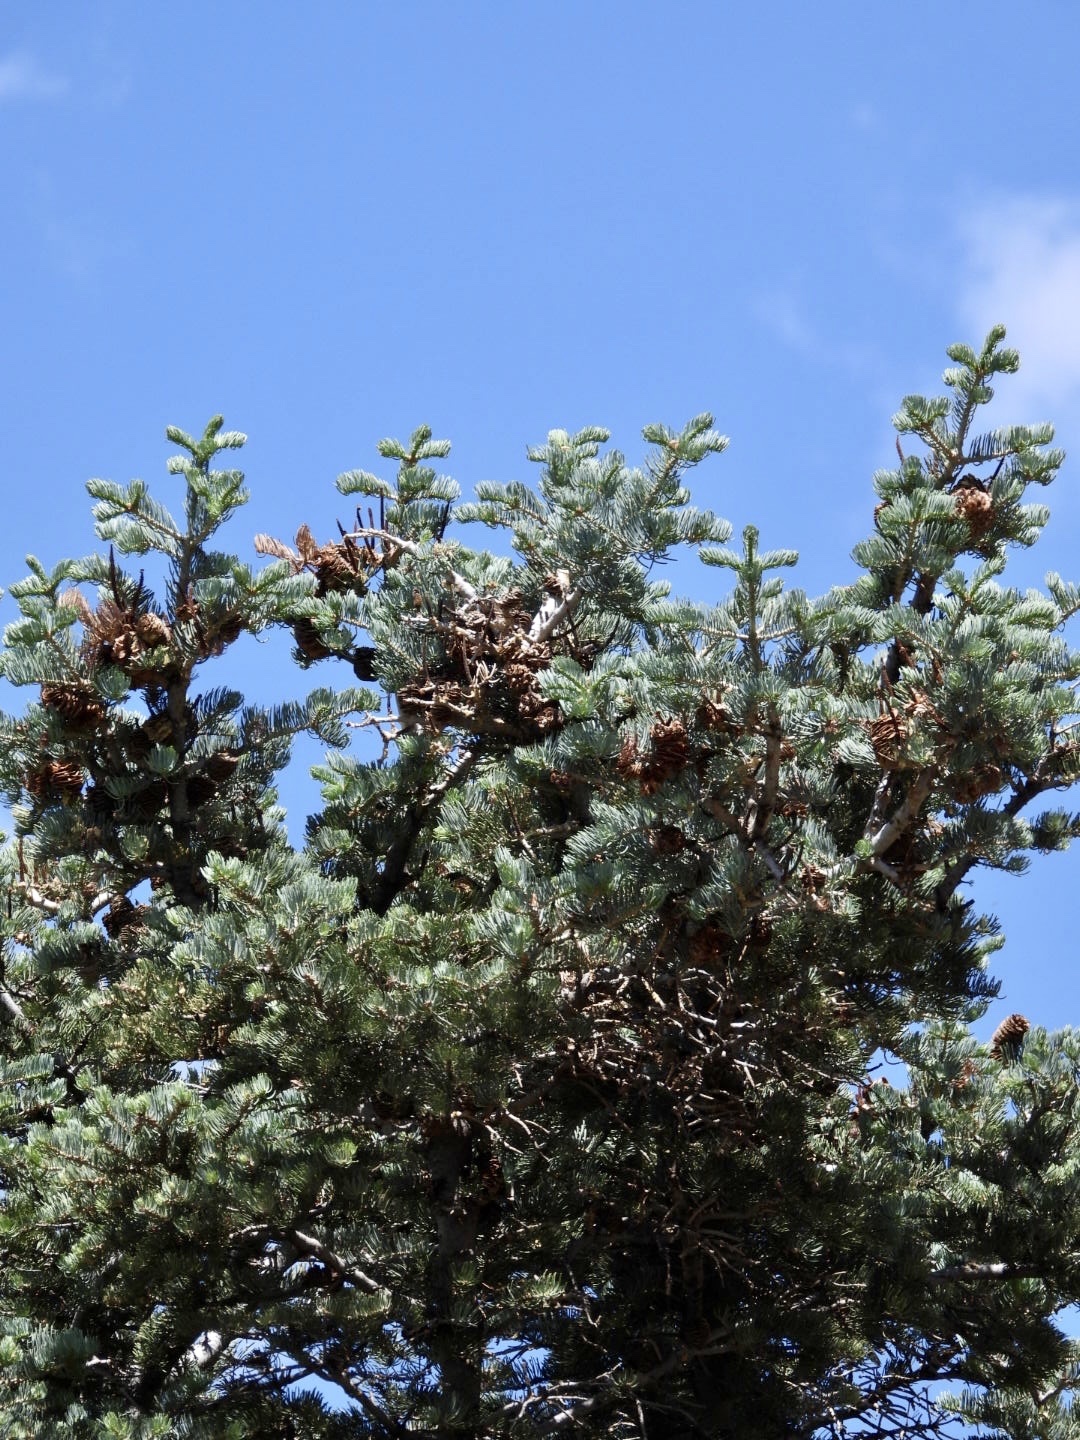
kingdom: Plantae
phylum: Tracheophyta
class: Pinopsida
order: Pinales
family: Pinaceae
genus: Abies
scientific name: Abies concolor
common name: Colorado fir
